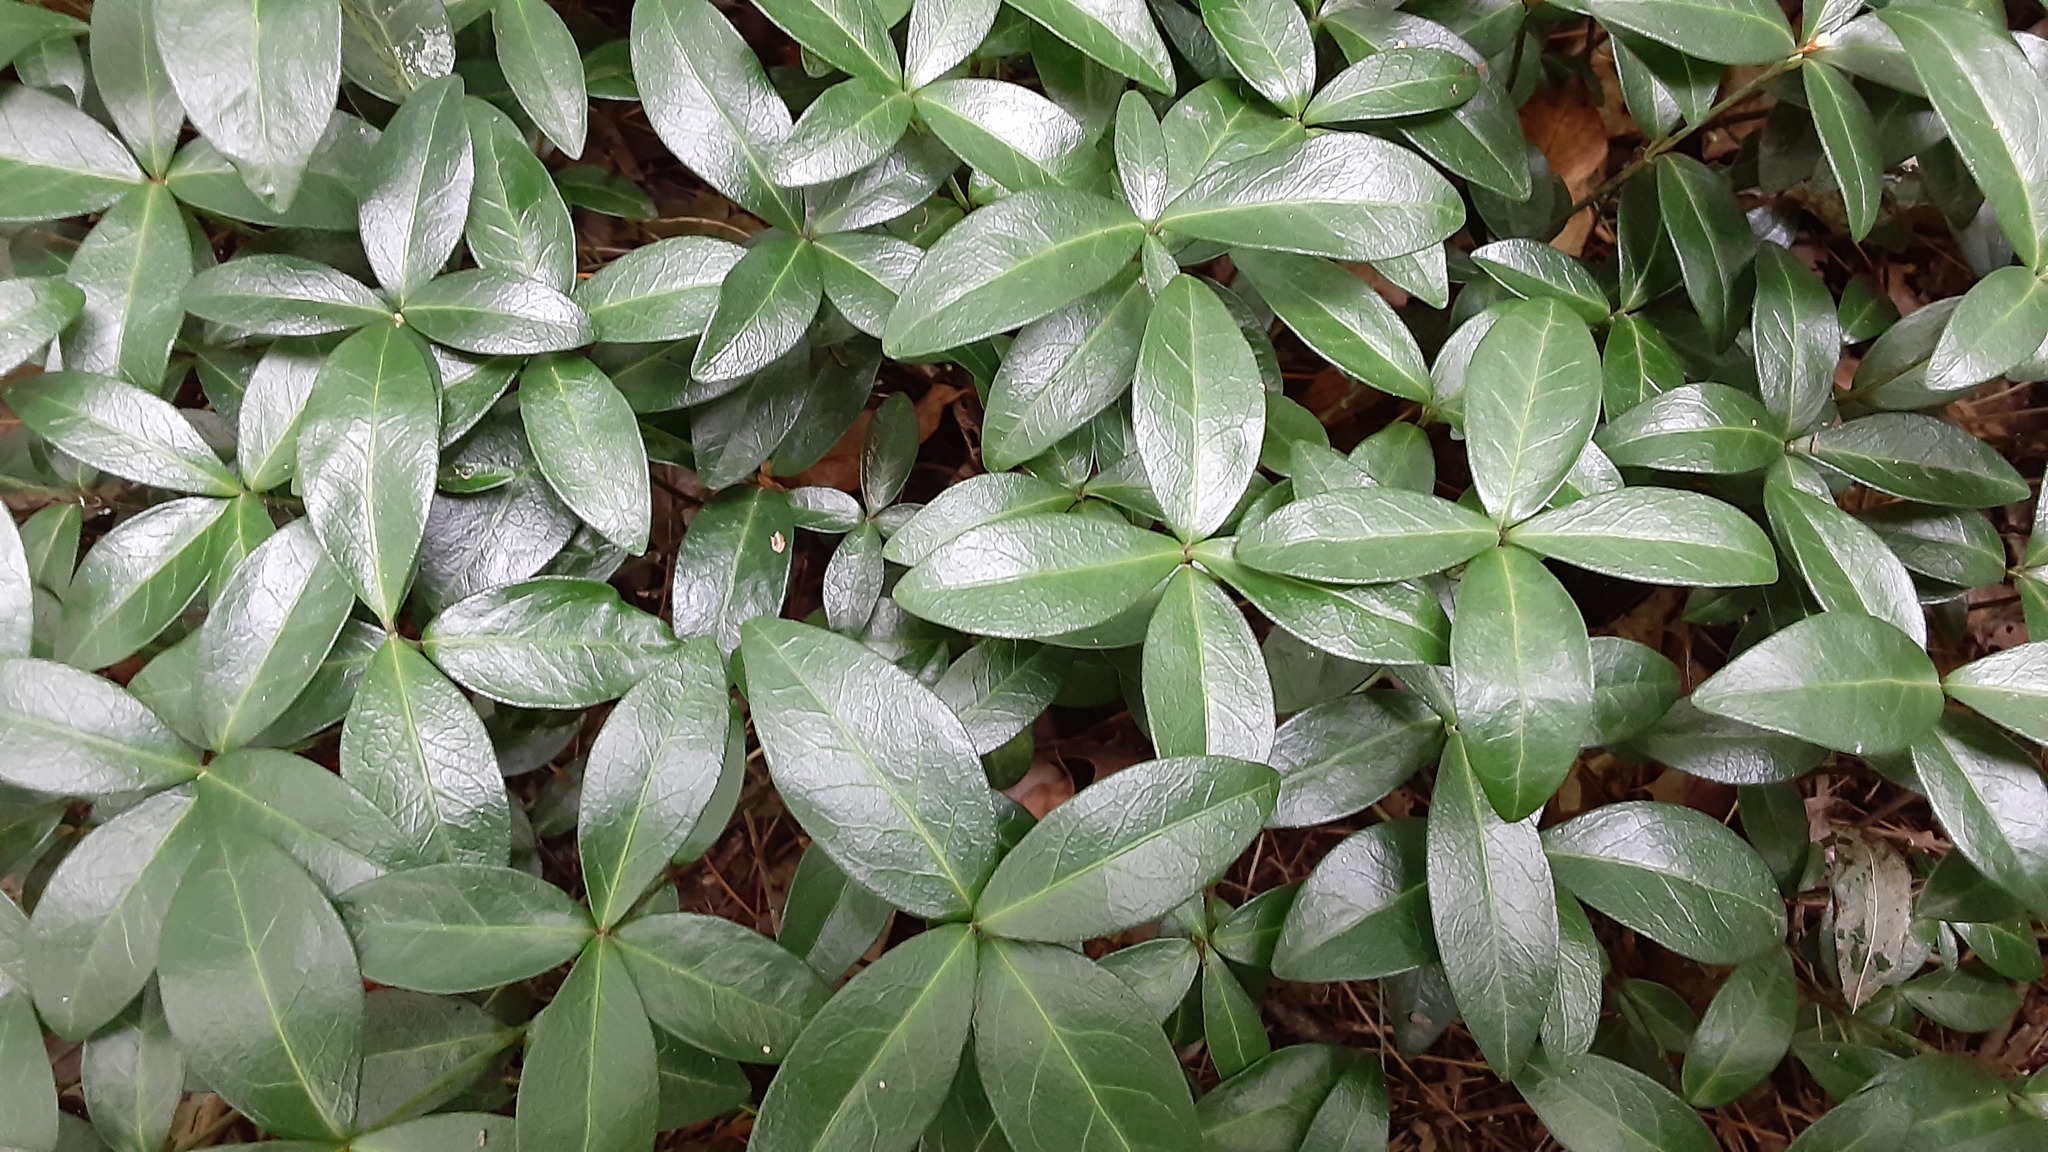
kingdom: Plantae
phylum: Tracheophyta
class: Magnoliopsida
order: Gentianales
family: Apocynaceae
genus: Vinca
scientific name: Vinca minor
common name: Lesser periwinkle
